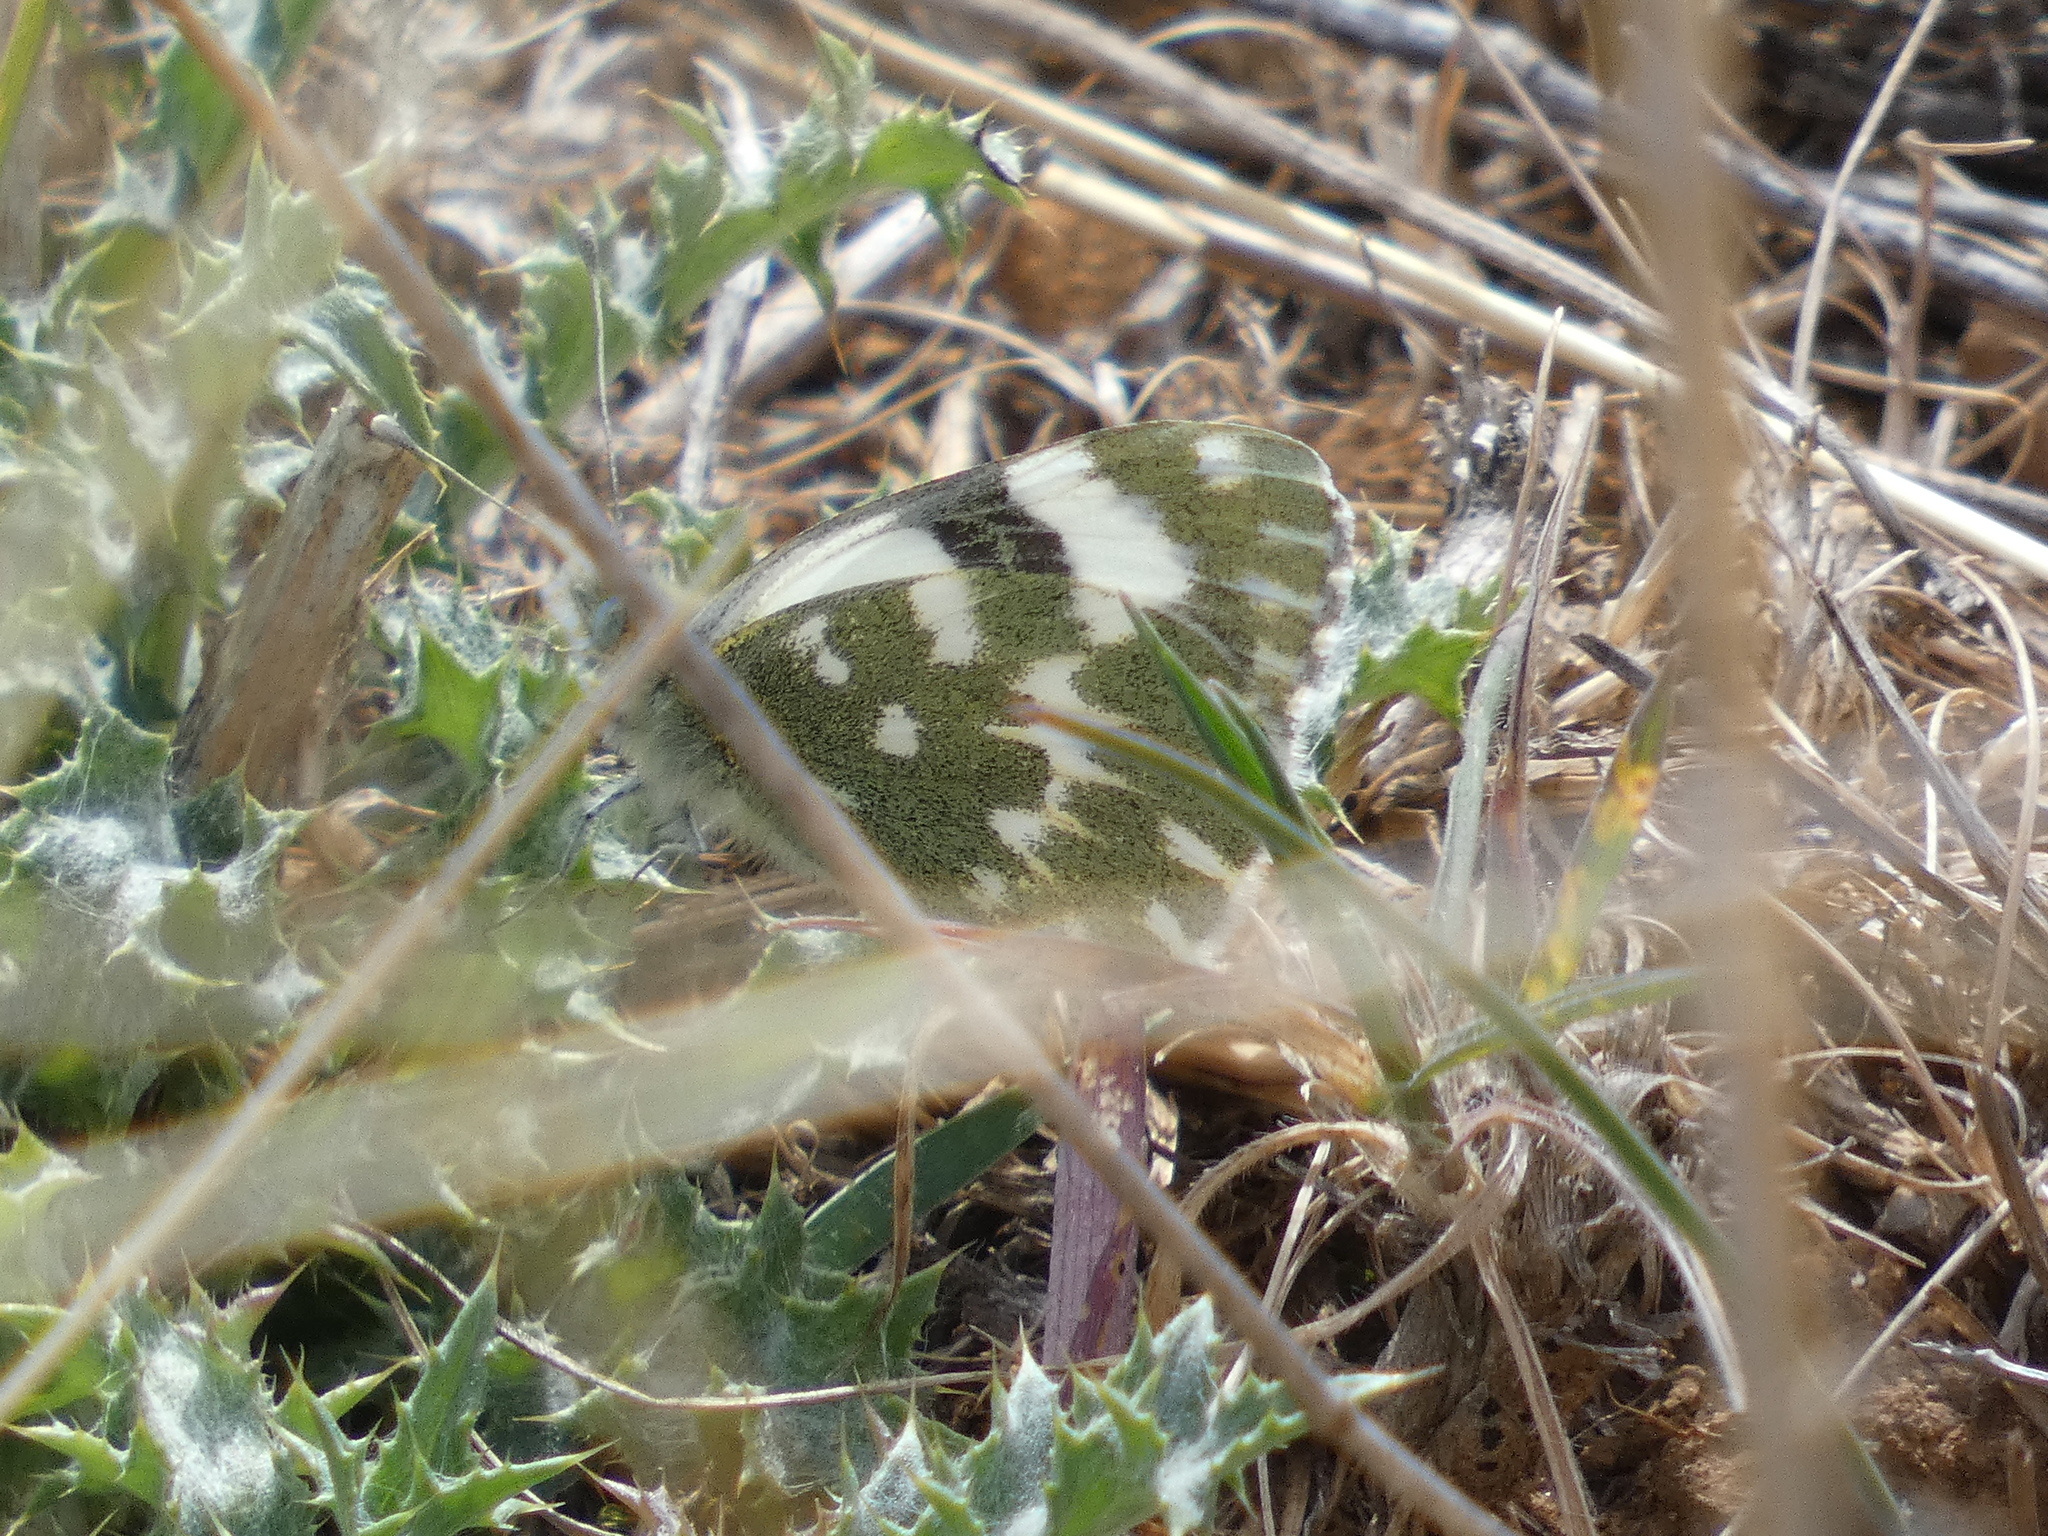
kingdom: Animalia
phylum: Arthropoda
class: Insecta
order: Lepidoptera
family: Pieridae
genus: Pontia
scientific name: Pontia daplidice
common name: Bath white
